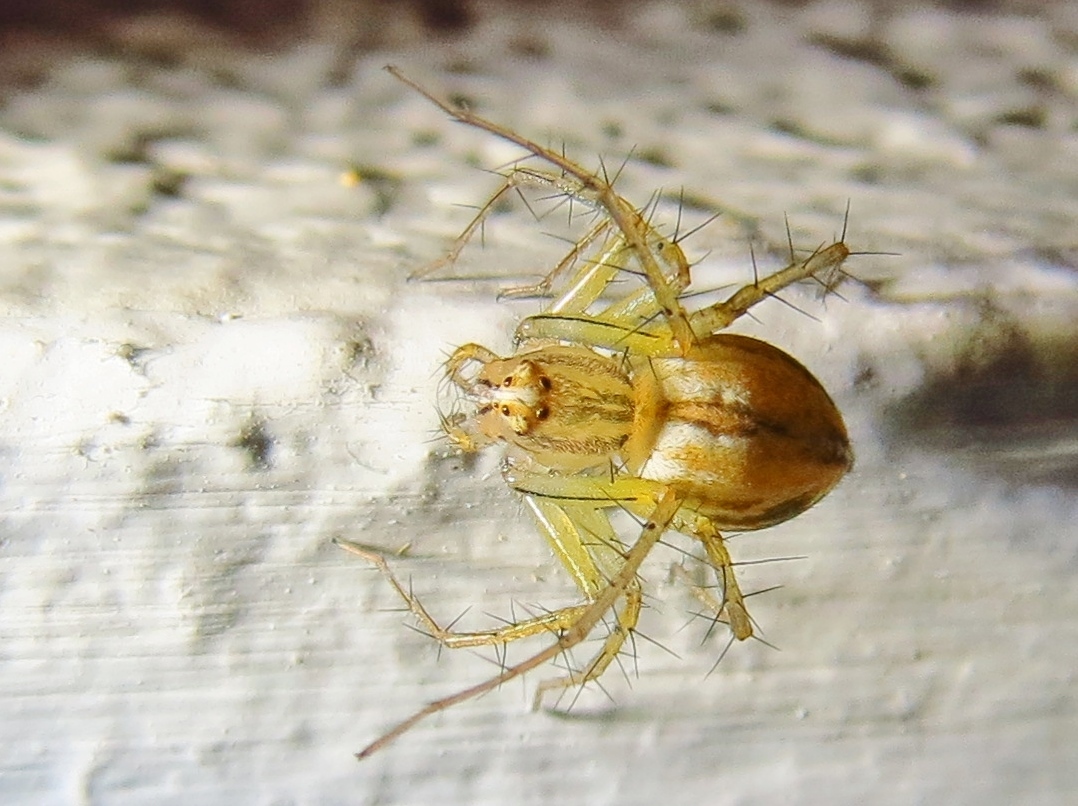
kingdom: Animalia
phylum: Arthropoda
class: Arachnida
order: Araneae
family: Oxyopidae
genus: Oxyopes
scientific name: Oxyopes salticus
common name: Lynx spiders
